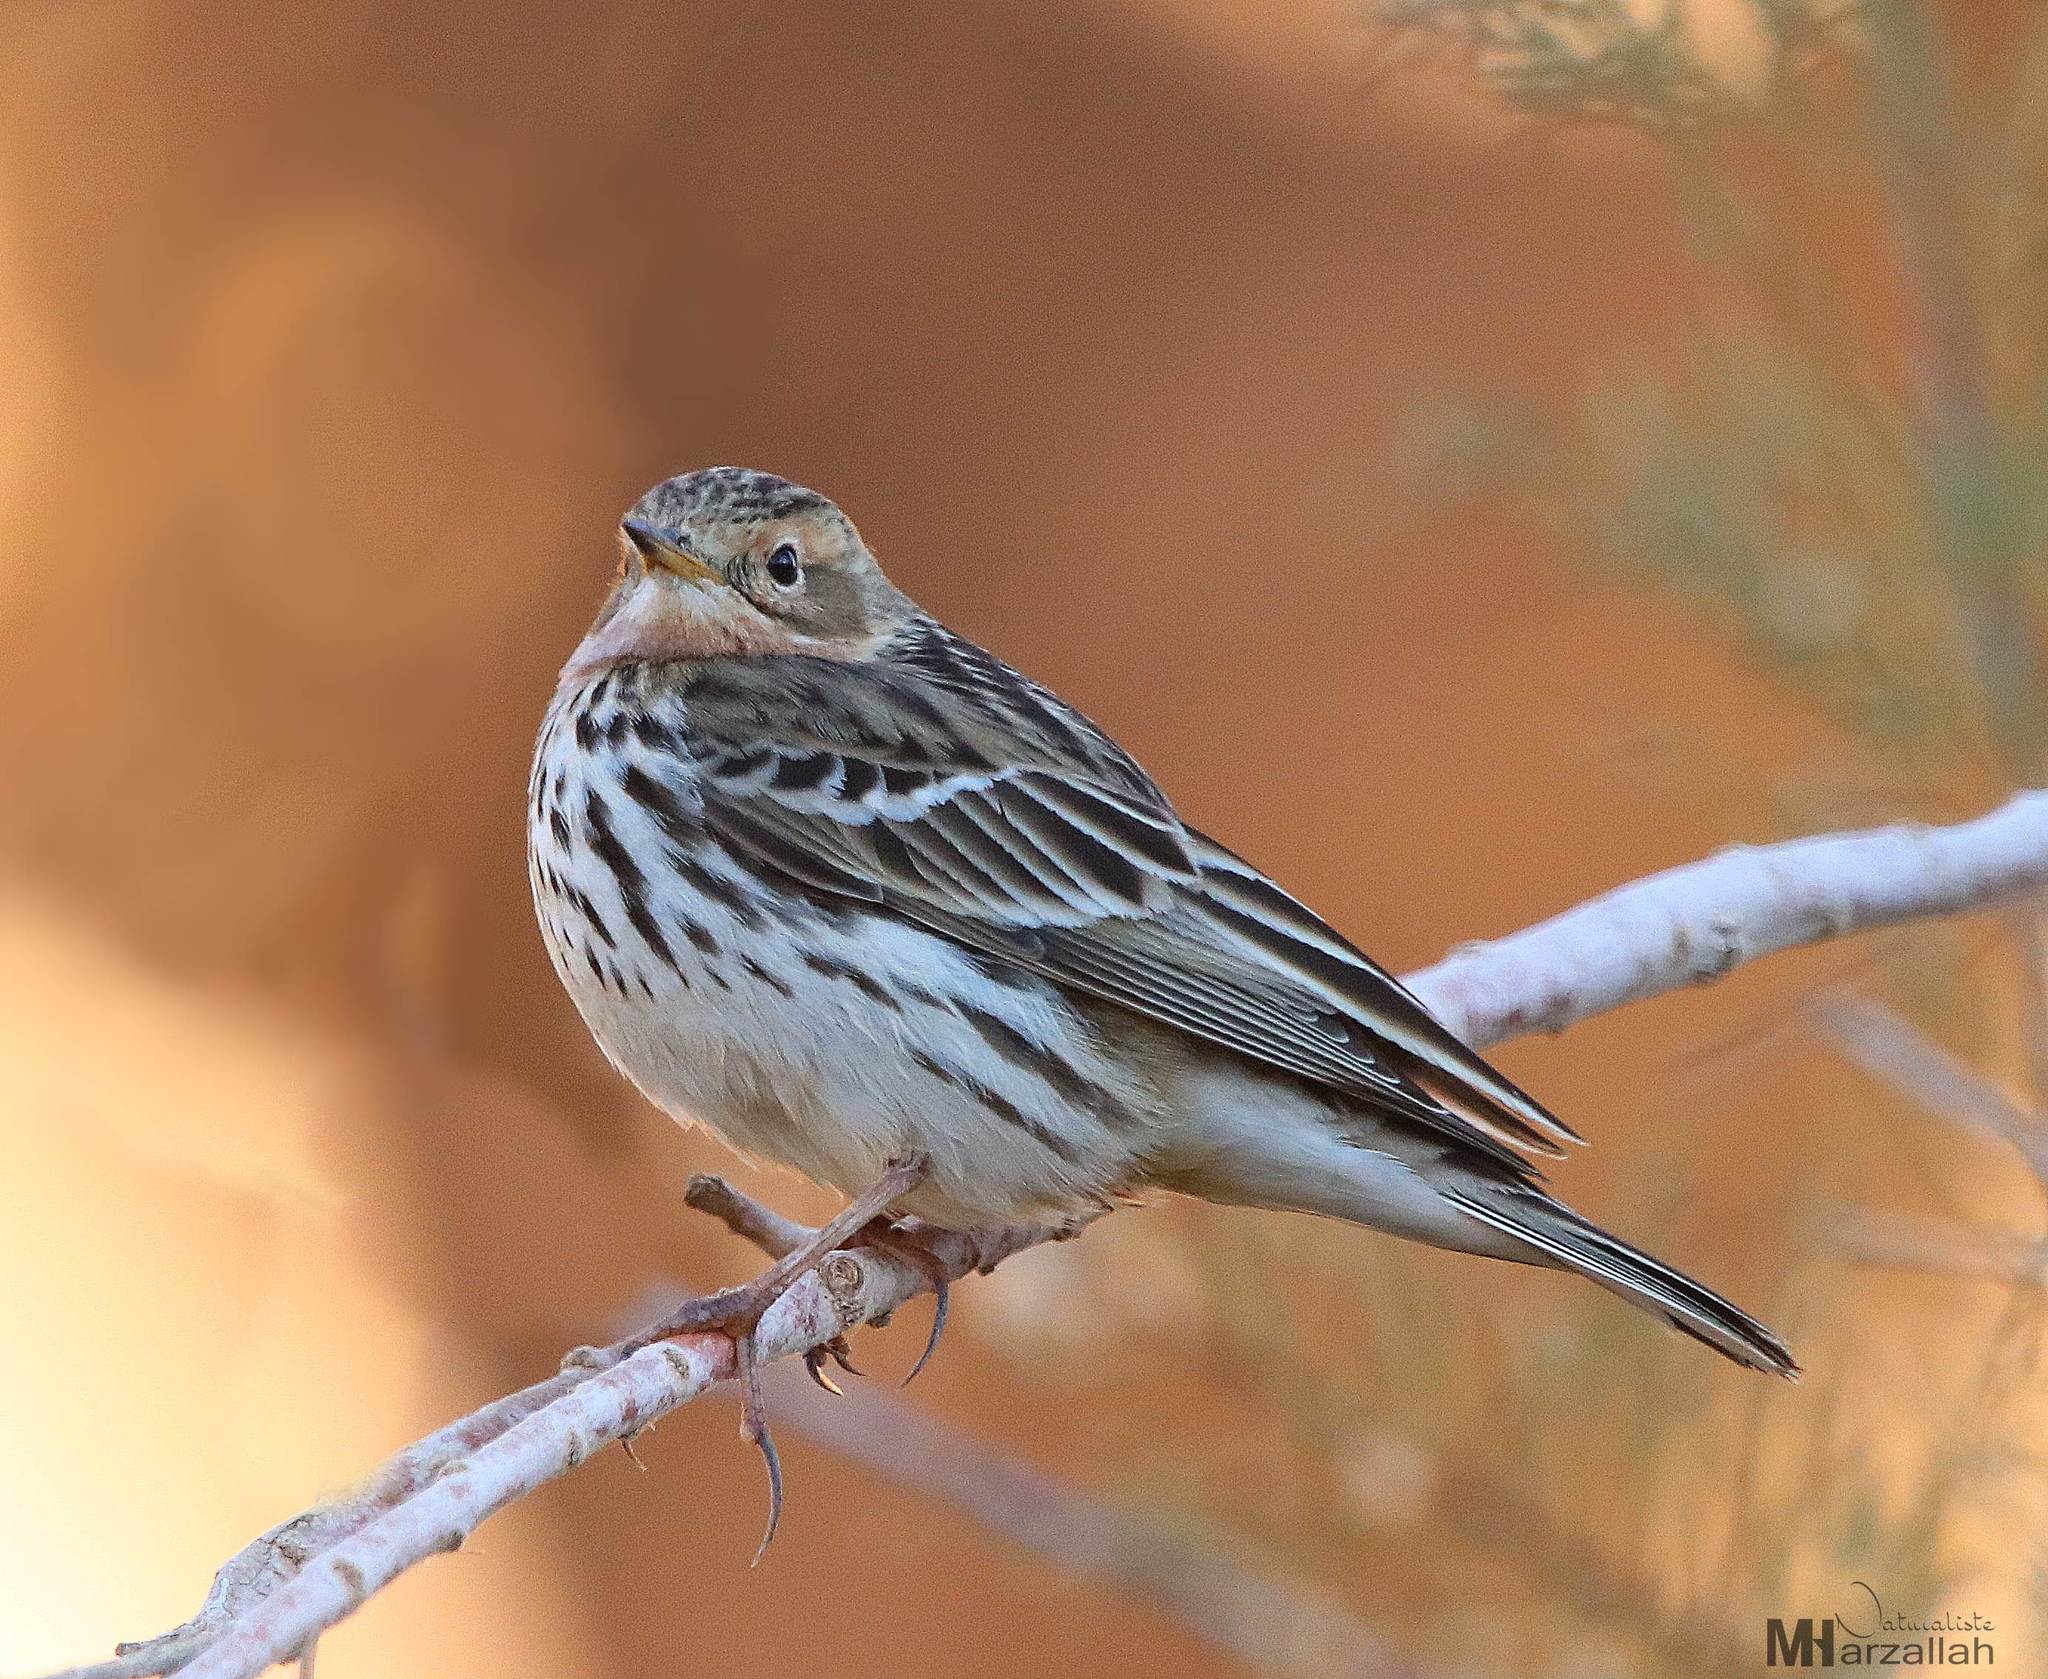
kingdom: Animalia
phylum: Chordata
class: Aves
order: Passeriformes
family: Motacillidae
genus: Anthus
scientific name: Anthus cervinus
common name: Red-throated pipit
